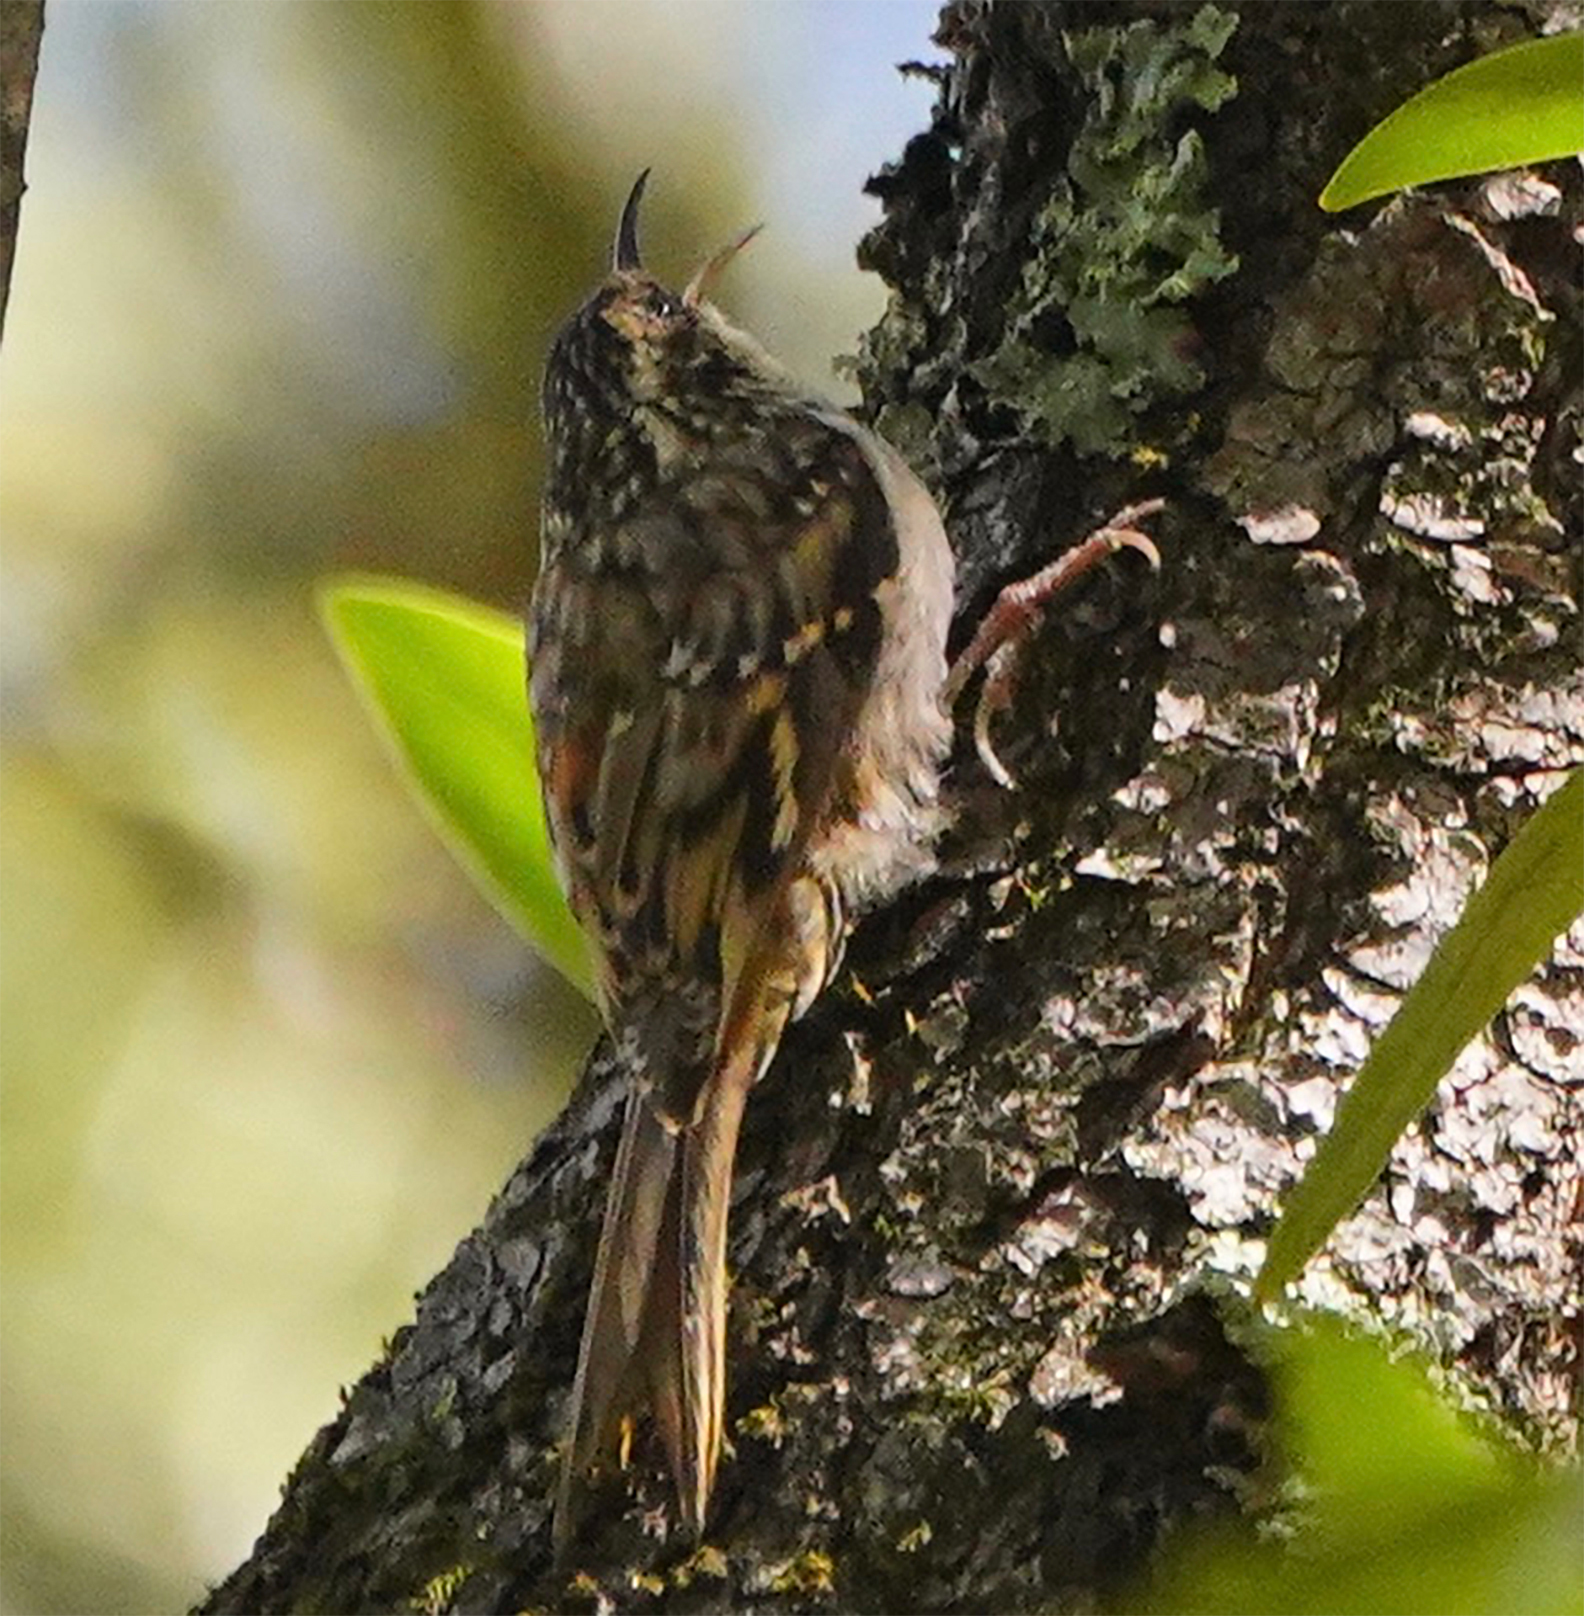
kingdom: Animalia
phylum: Chordata
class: Aves
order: Passeriformes
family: Certhiidae
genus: Certhia
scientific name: Certhia americana
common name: Brown creeper
